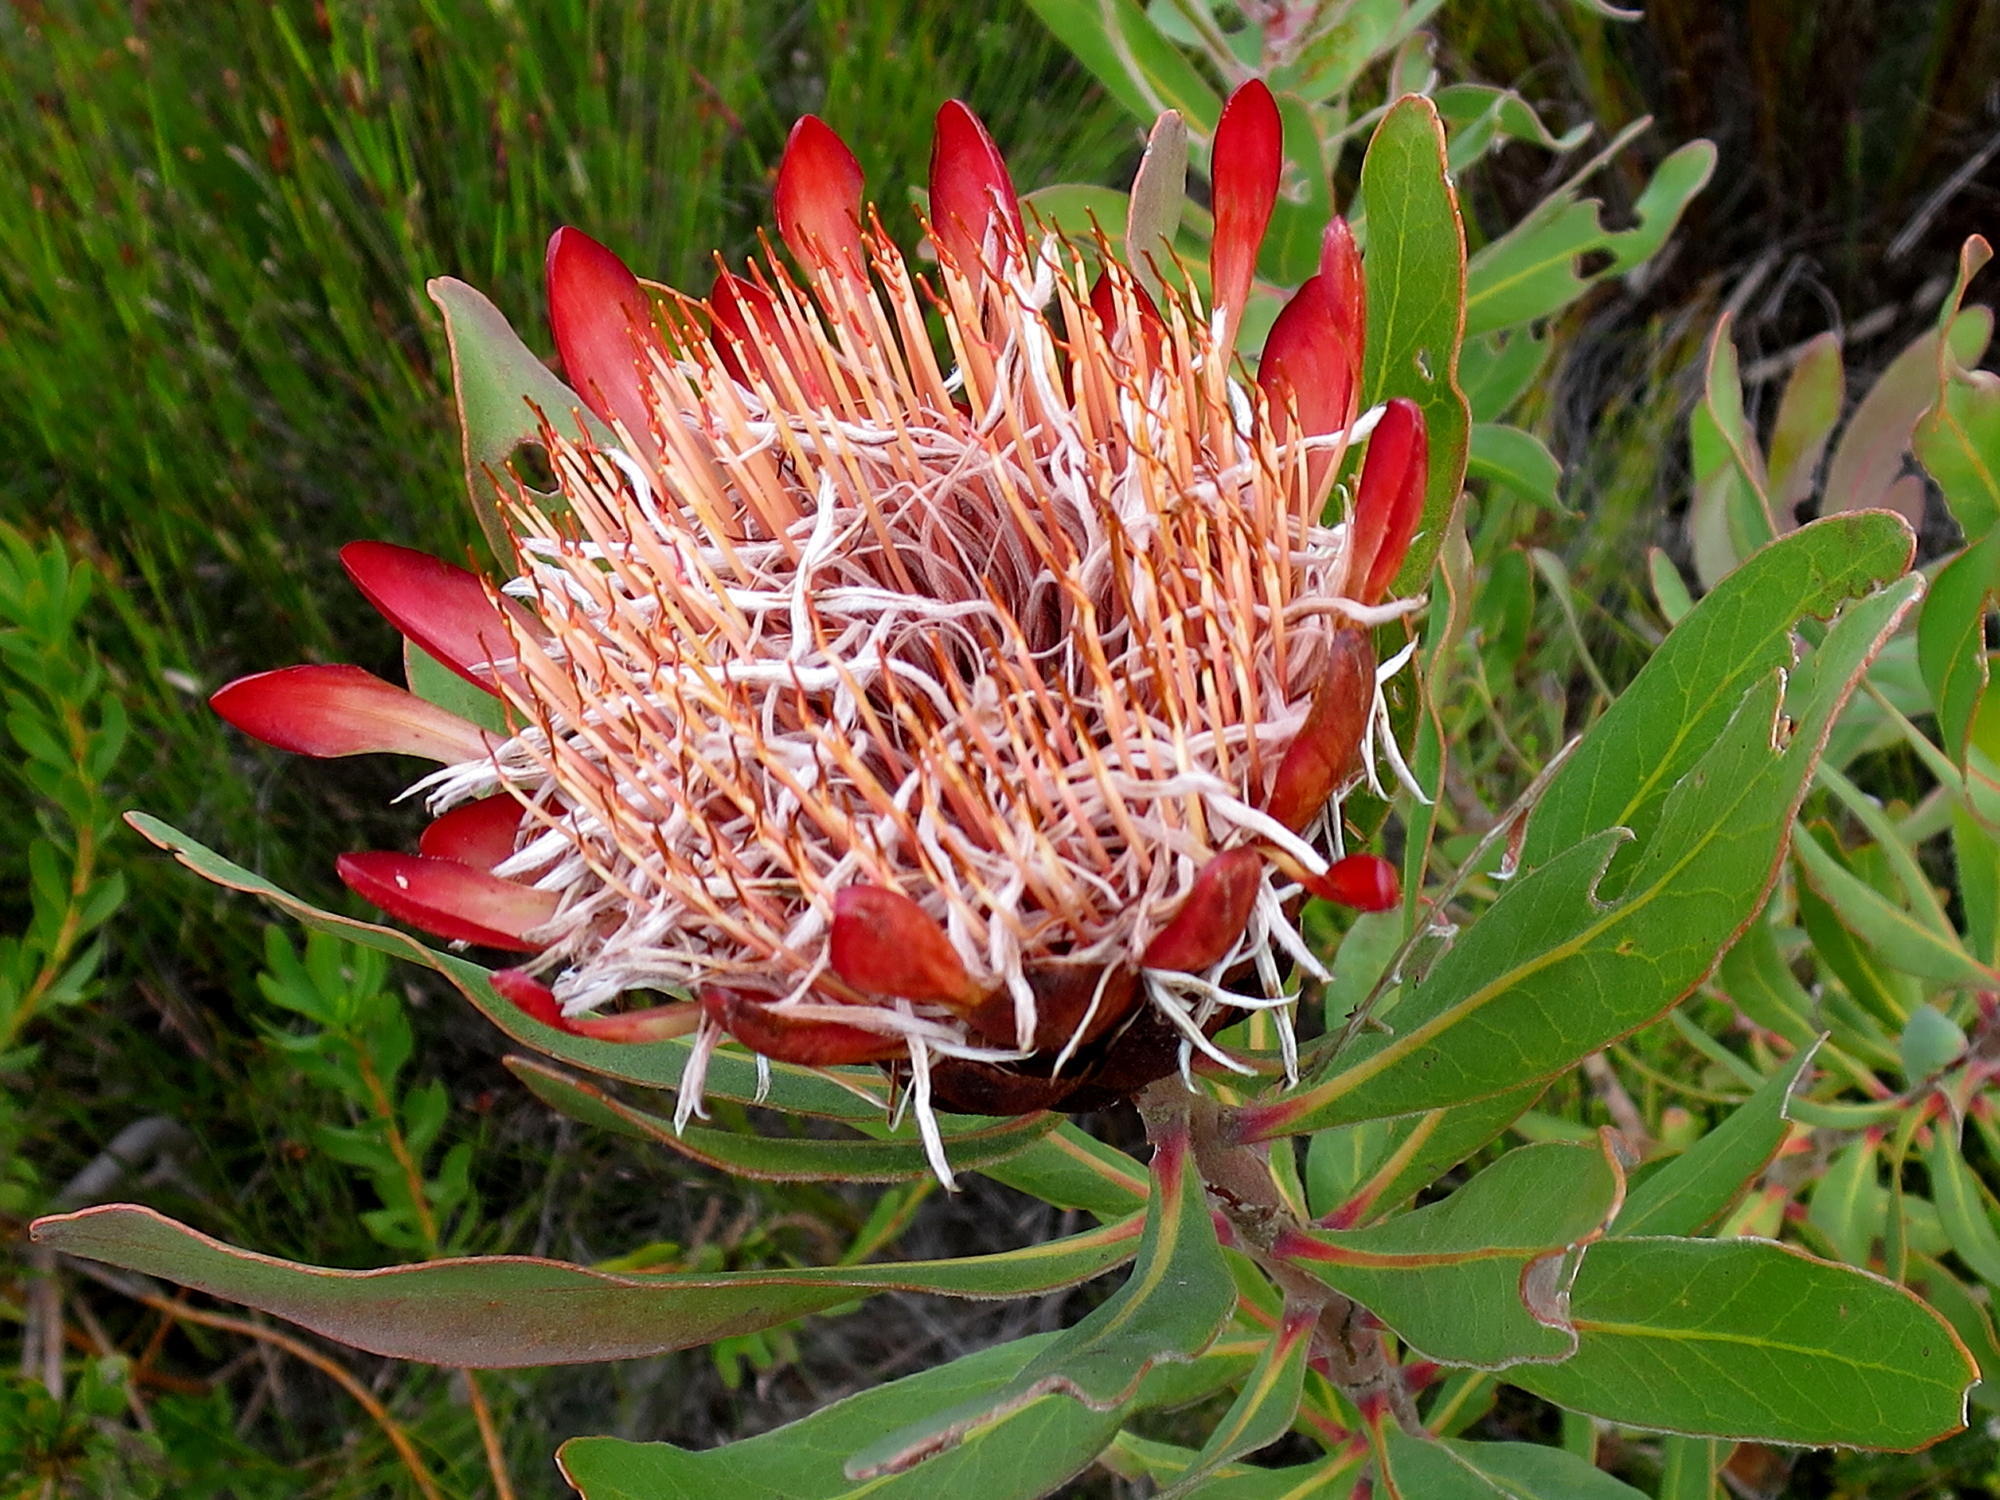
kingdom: Plantae
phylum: Tracheophyta
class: Magnoliopsida
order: Proteales
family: Proteaceae
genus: Protea
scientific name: Protea susannae
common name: Foetid-leaf sugarbush
